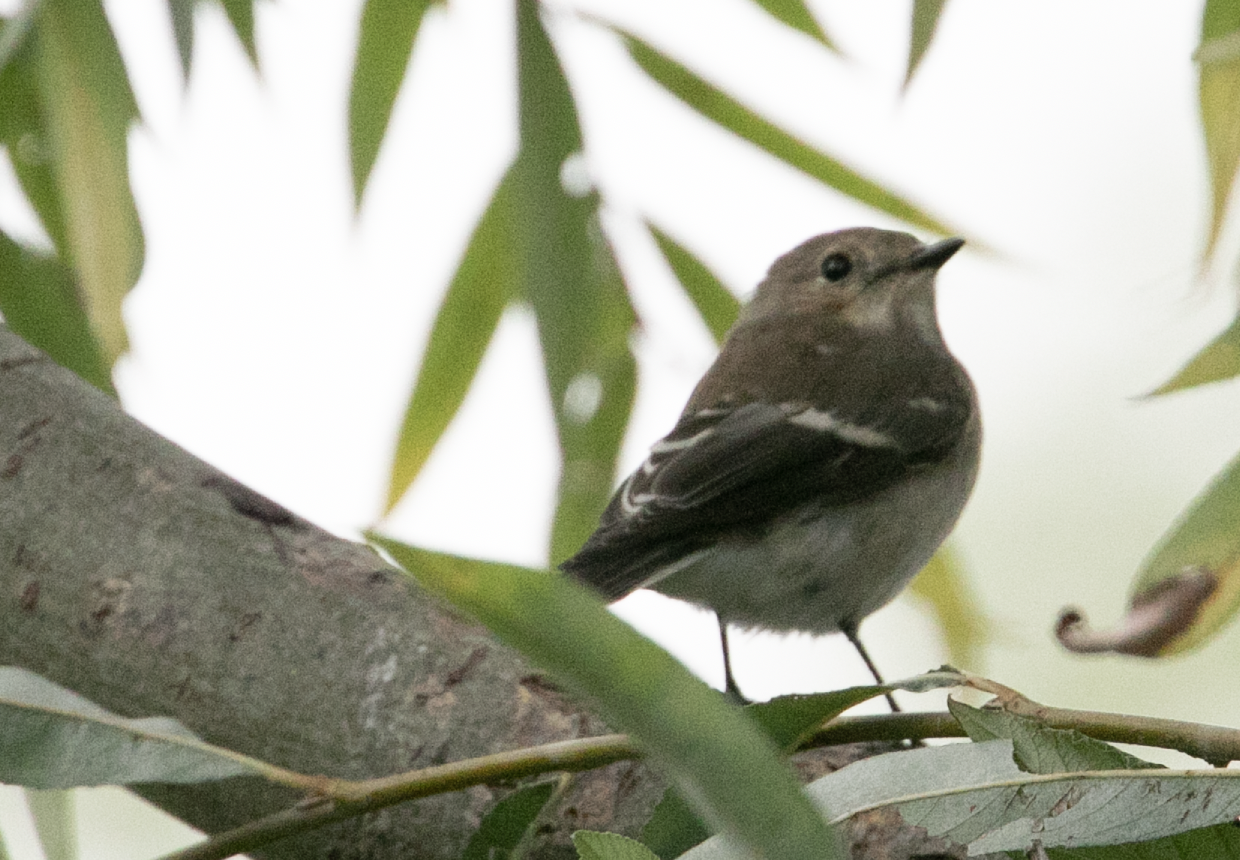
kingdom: Animalia
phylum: Chordata
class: Aves
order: Passeriformes
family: Muscicapidae
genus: Ficedula
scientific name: Ficedula hypoleuca
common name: European pied flycatcher
